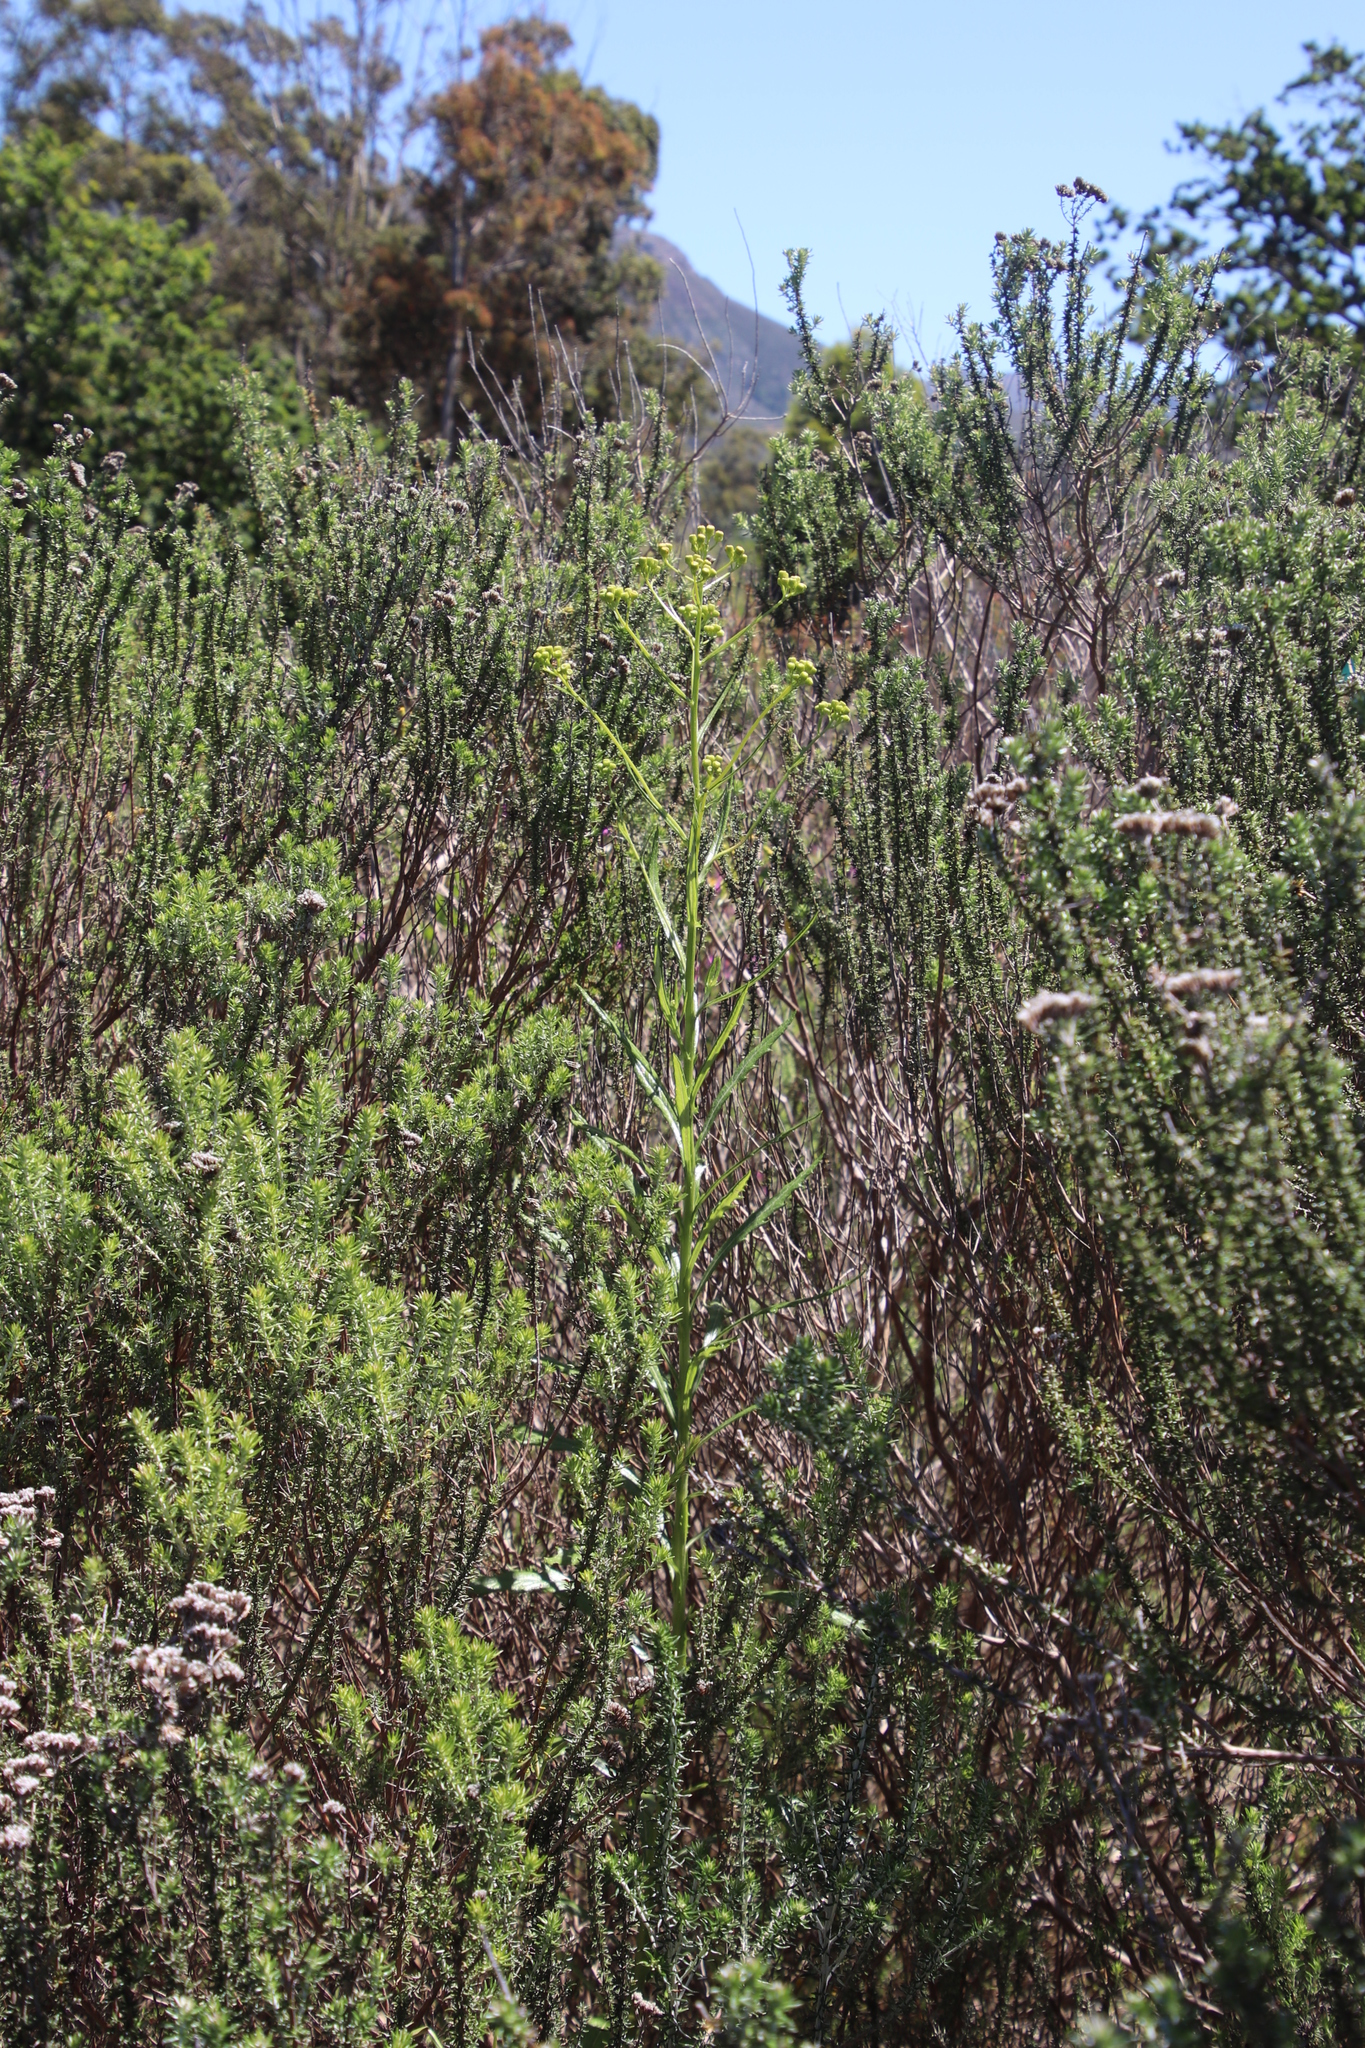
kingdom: Plantae
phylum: Tracheophyta
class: Magnoliopsida
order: Asterales
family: Asteraceae
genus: Senecio
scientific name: Senecio pterophorus
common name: Shoddy ragwort
